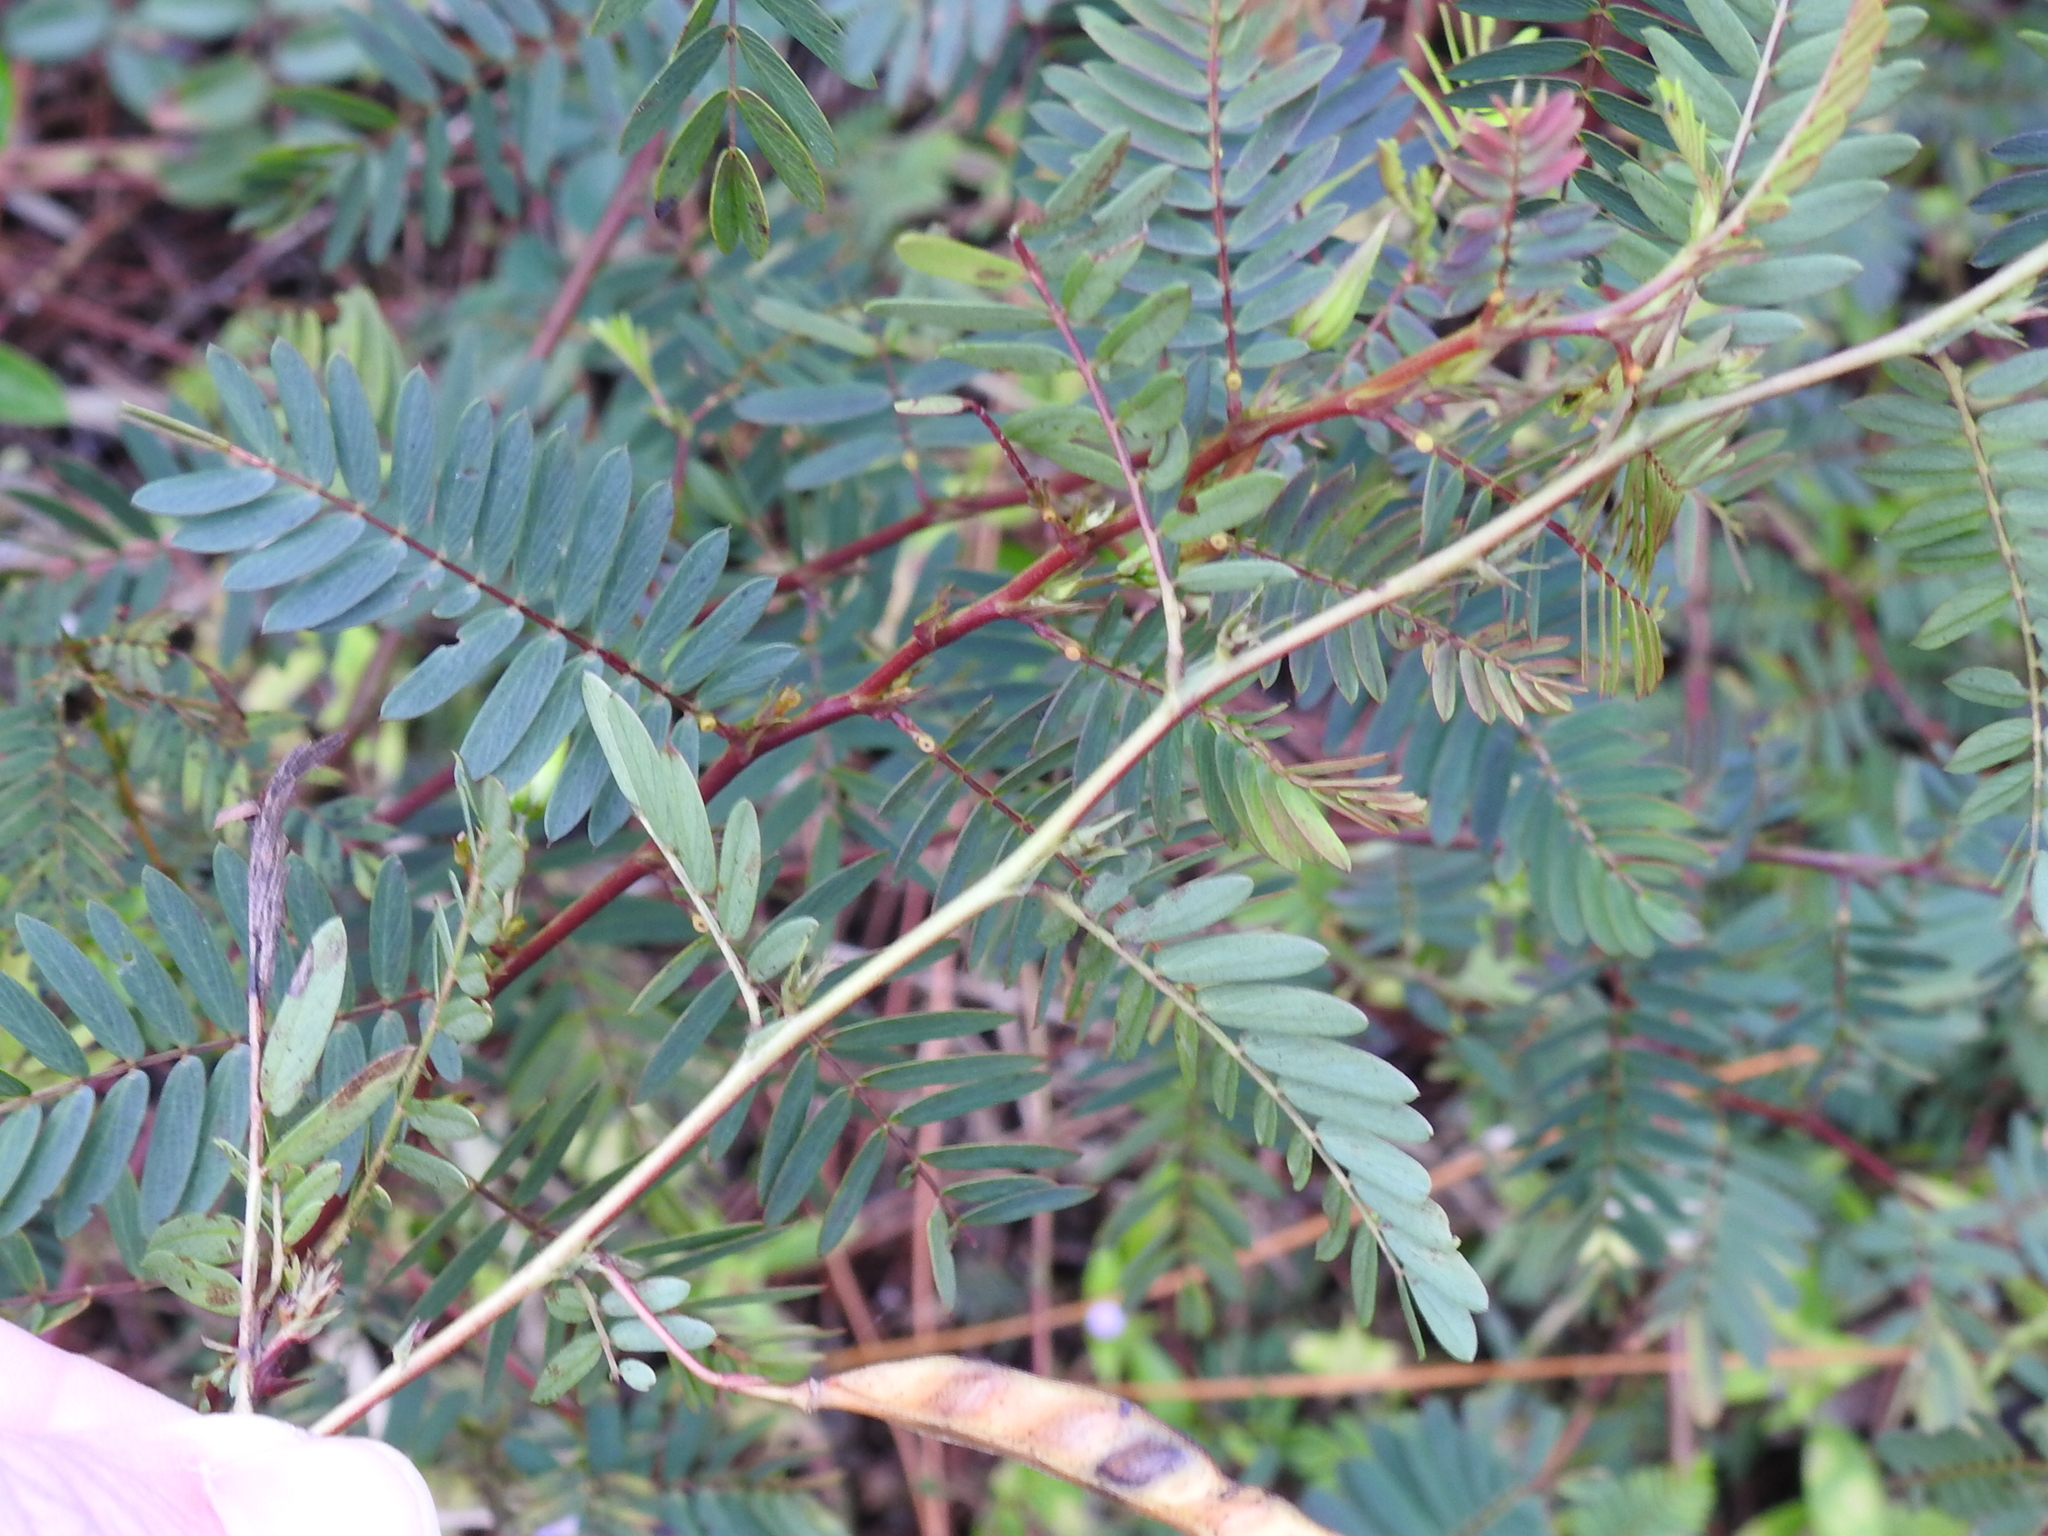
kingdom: Plantae
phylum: Tracheophyta
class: Magnoliopsida
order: Fabales
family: Fabaceae
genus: Chamaecrista
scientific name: Chamaecrista fasciculata
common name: Golden cassia
